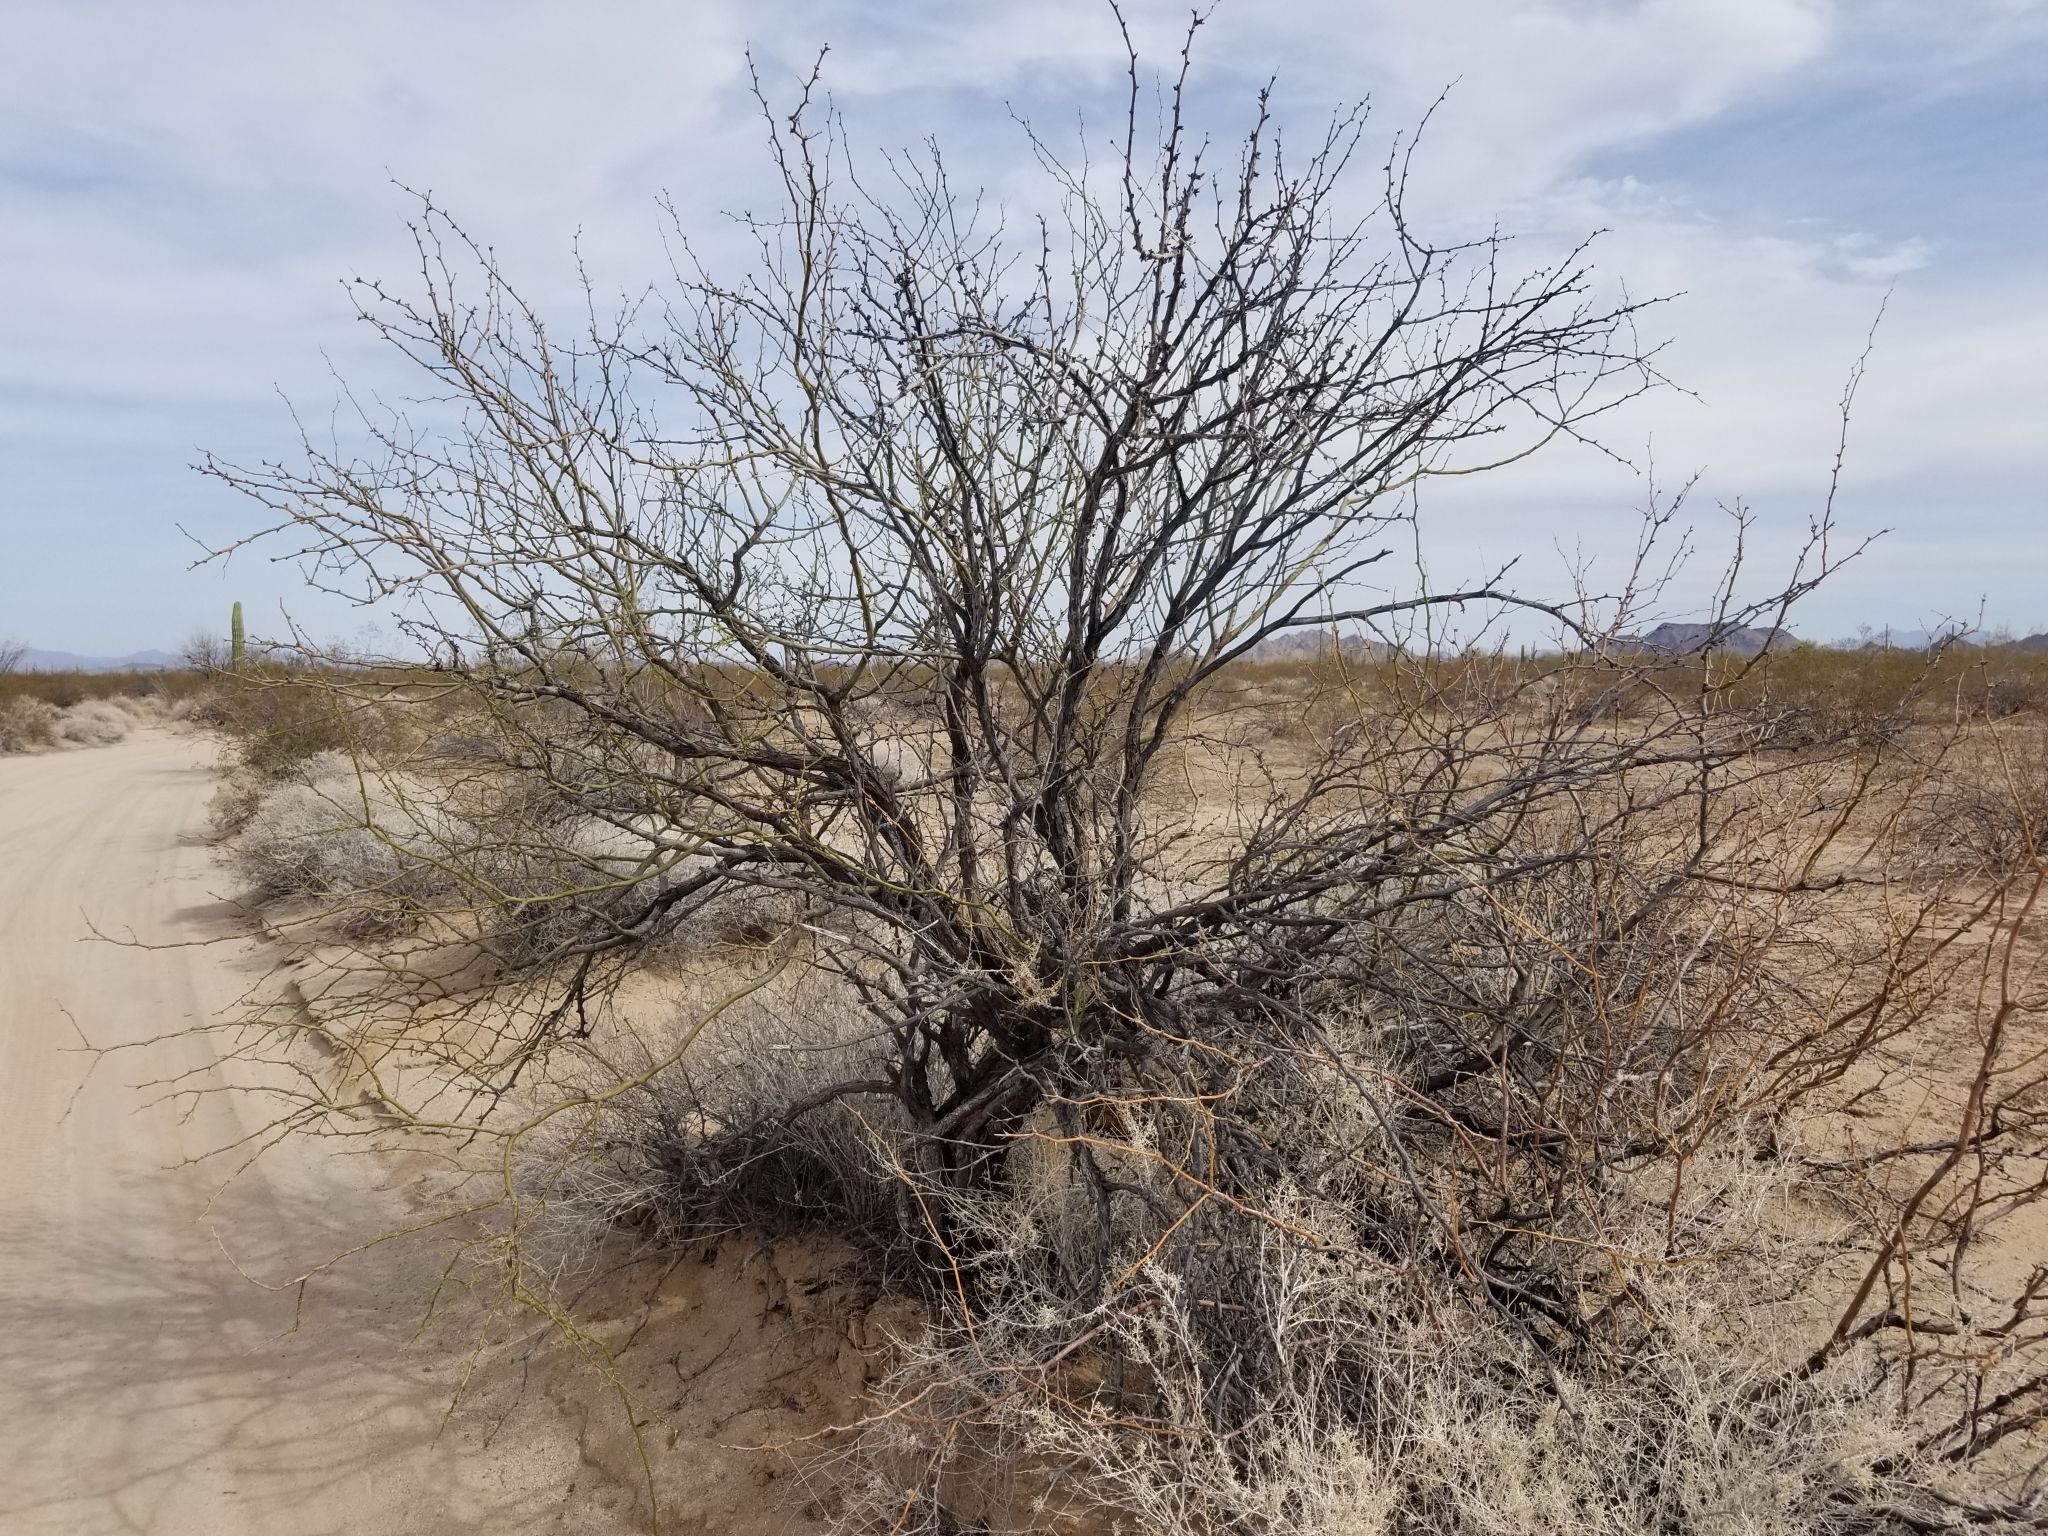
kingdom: Plantae
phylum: Tracheophyta
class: Magnoliopsida
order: Fabales
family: Fabaceae
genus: Prosopis
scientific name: Prosopis velutina
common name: Velvet mesquite
